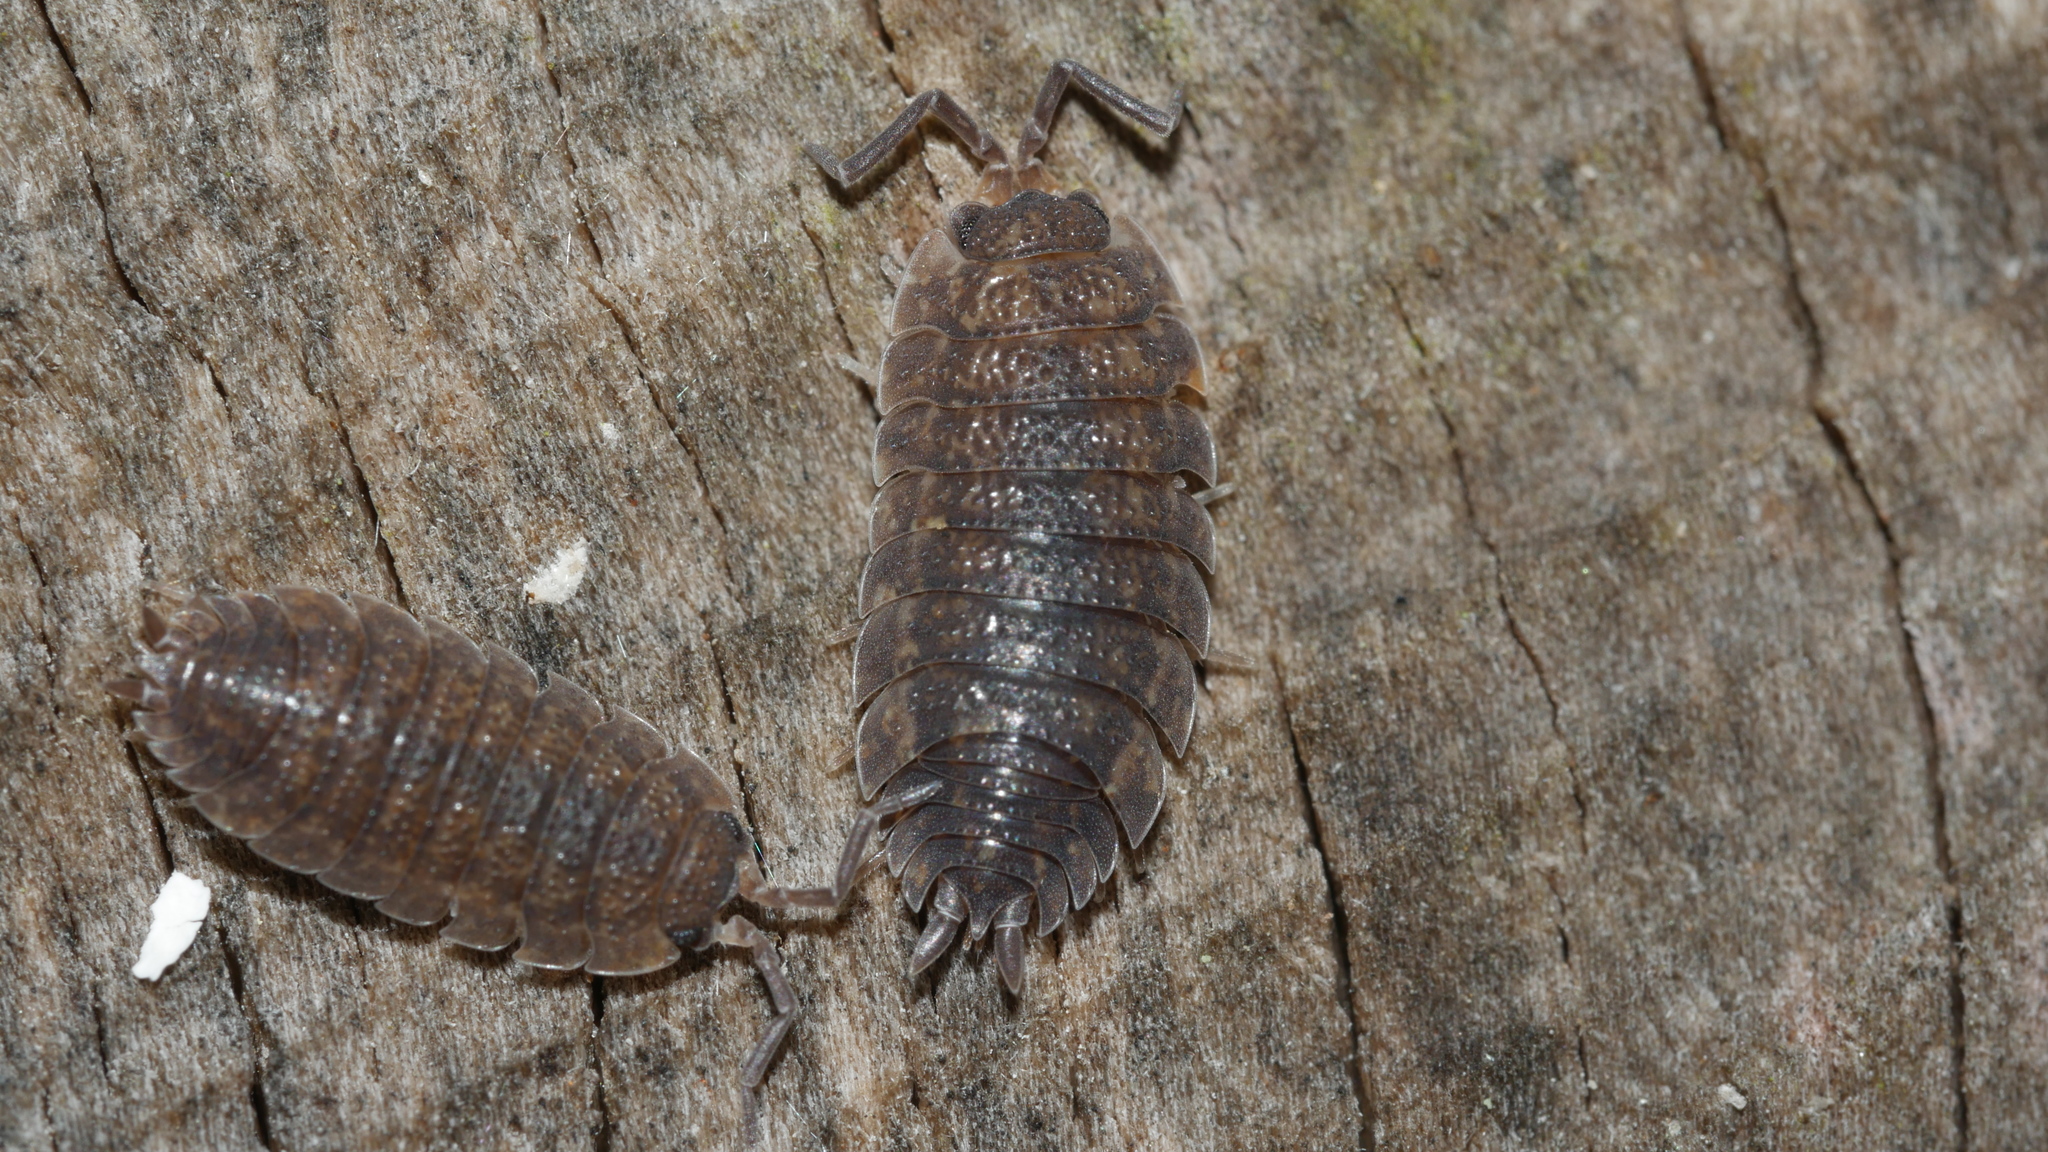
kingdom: Animalia
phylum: Arthropoda
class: Malacostraca
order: Isopoda
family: Porcellionidae
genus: Porcellio
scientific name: Porcellio scaber
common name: Common rough woodlouse
